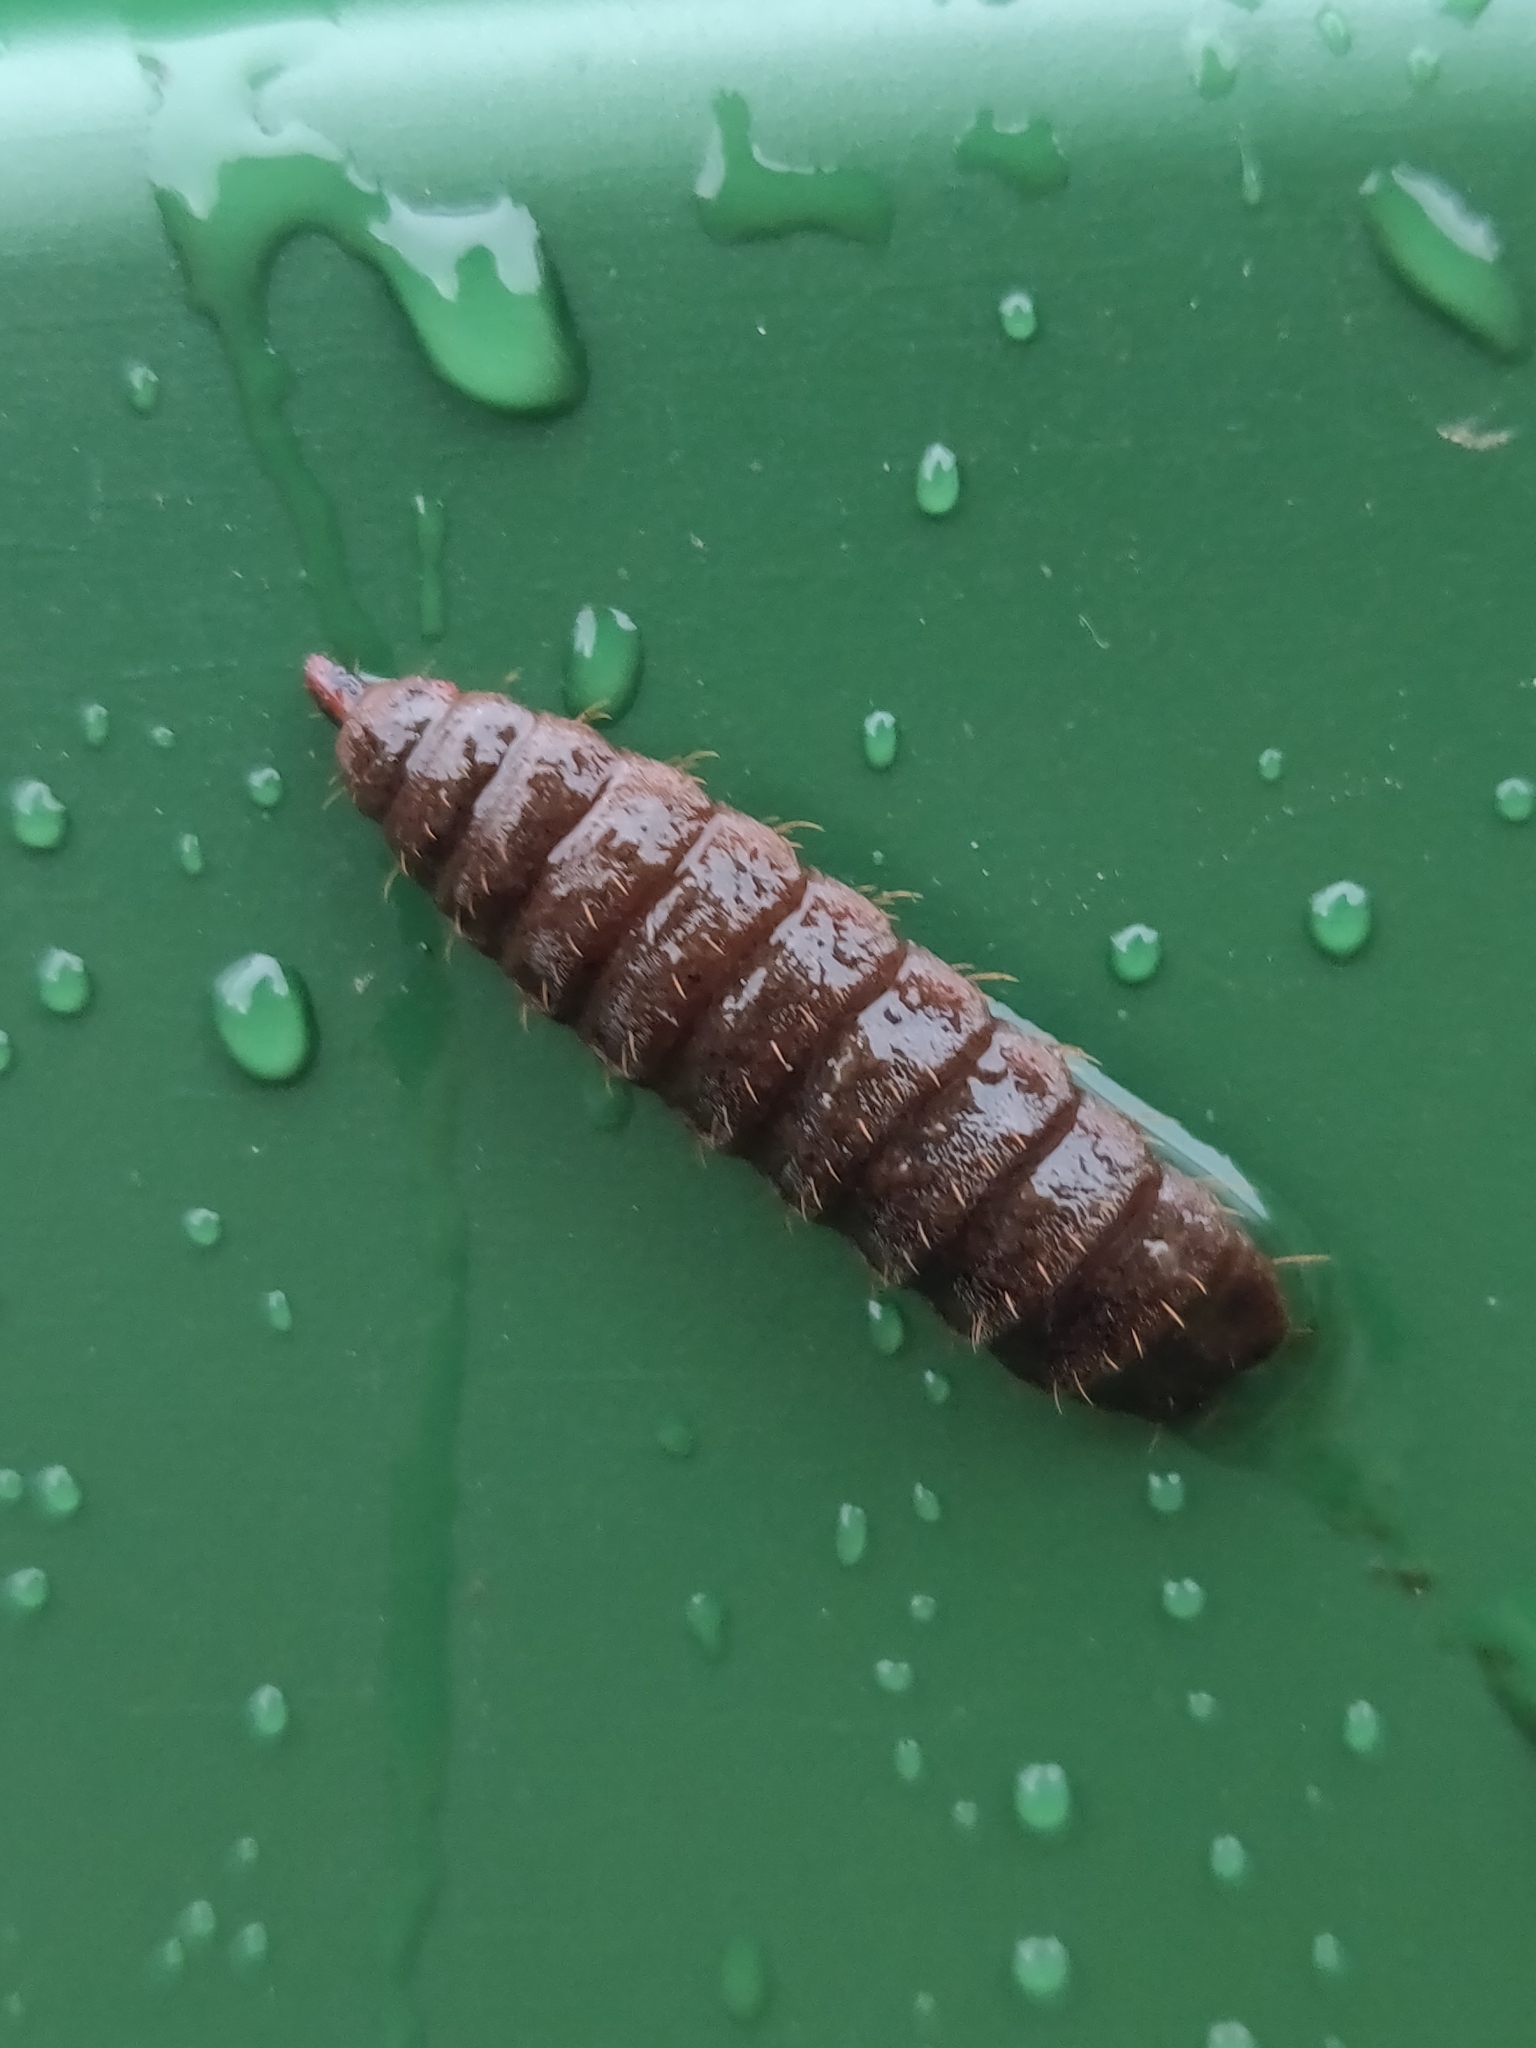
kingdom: Animalia
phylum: Arthropoda
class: Insecta
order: Diptera
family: Stratiomyidae
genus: Hermetia
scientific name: Hermetia illucens
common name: Black soldier fly
